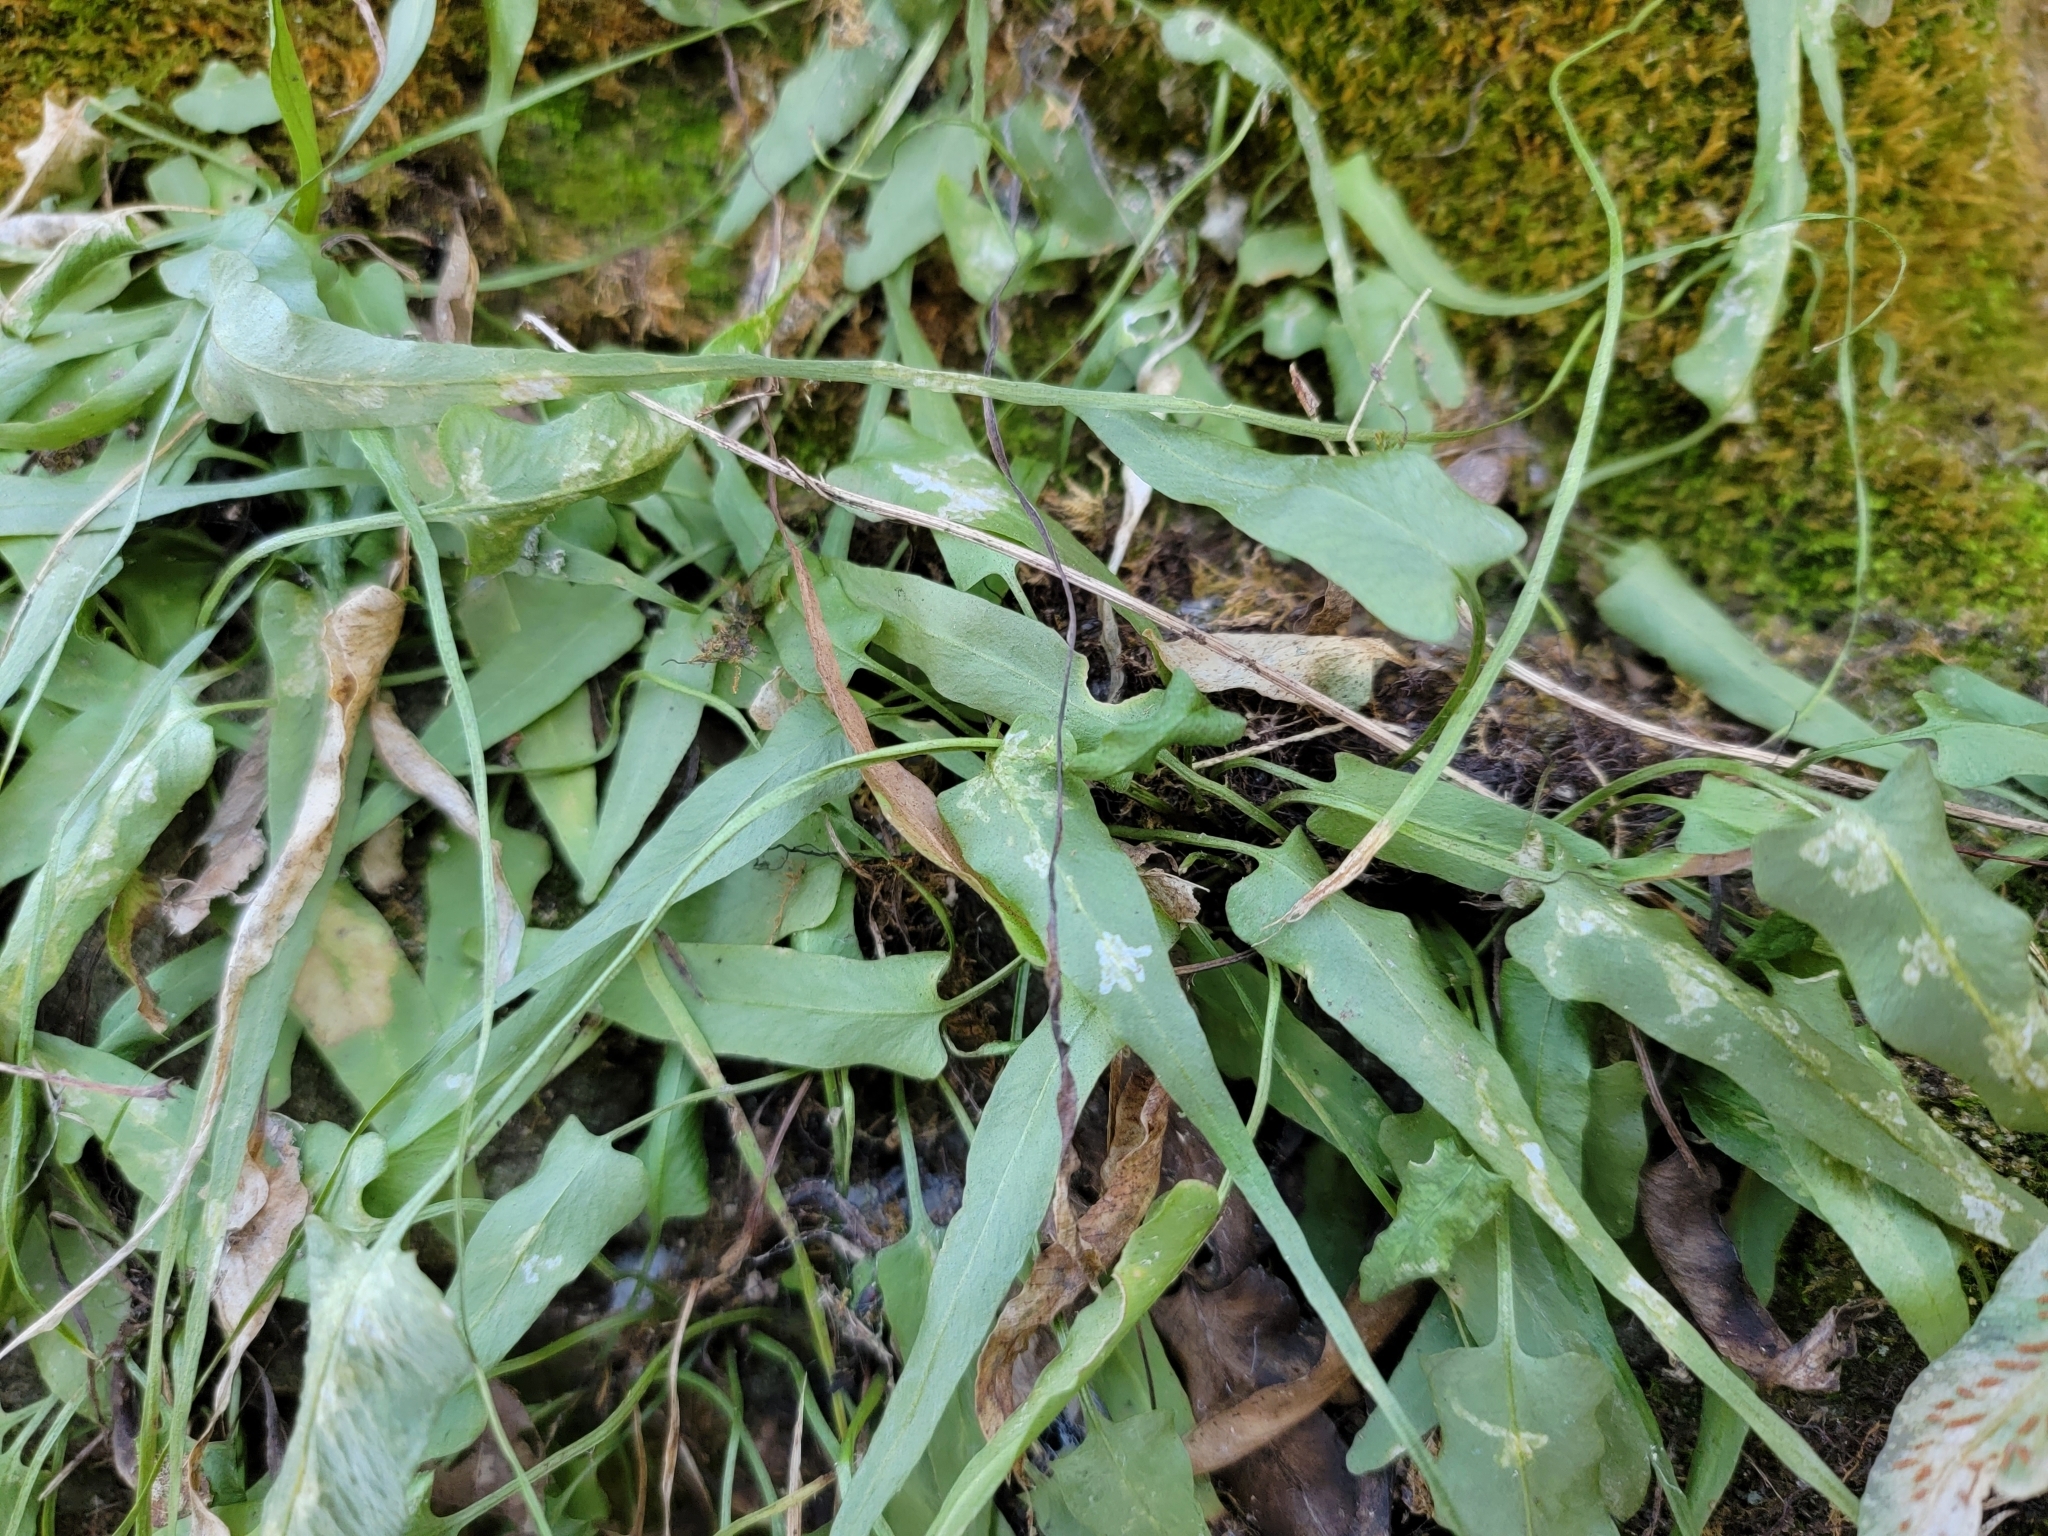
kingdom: Plantae
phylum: Tracheophyta
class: Polypodiopsida
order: Polypodiales
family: Aspleniaceae
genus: Asplenium
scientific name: Asplenium rhizophyllum
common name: Walking fern
